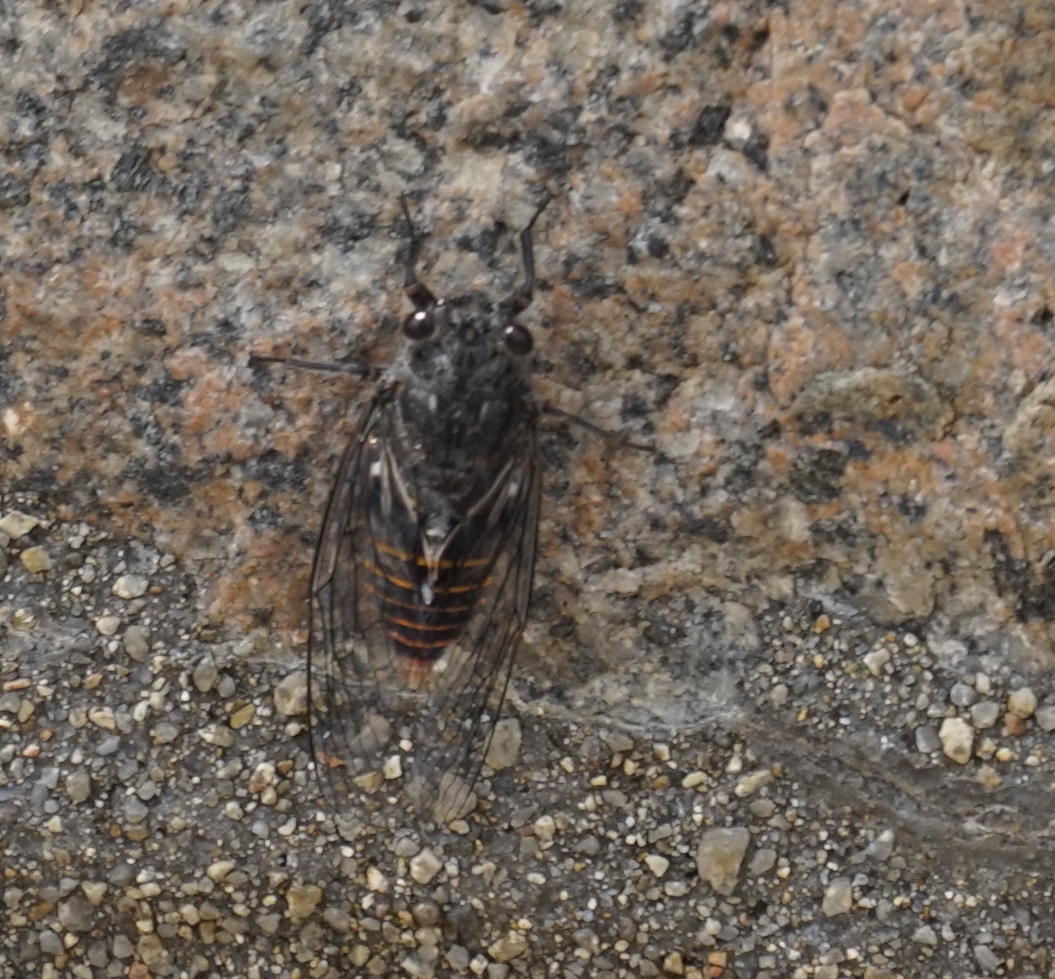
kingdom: Animalia
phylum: Arthropoda
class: Insecta
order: Hemiptera
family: Cicadidae
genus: Pauropsalta
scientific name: Pauropsalta mneme
